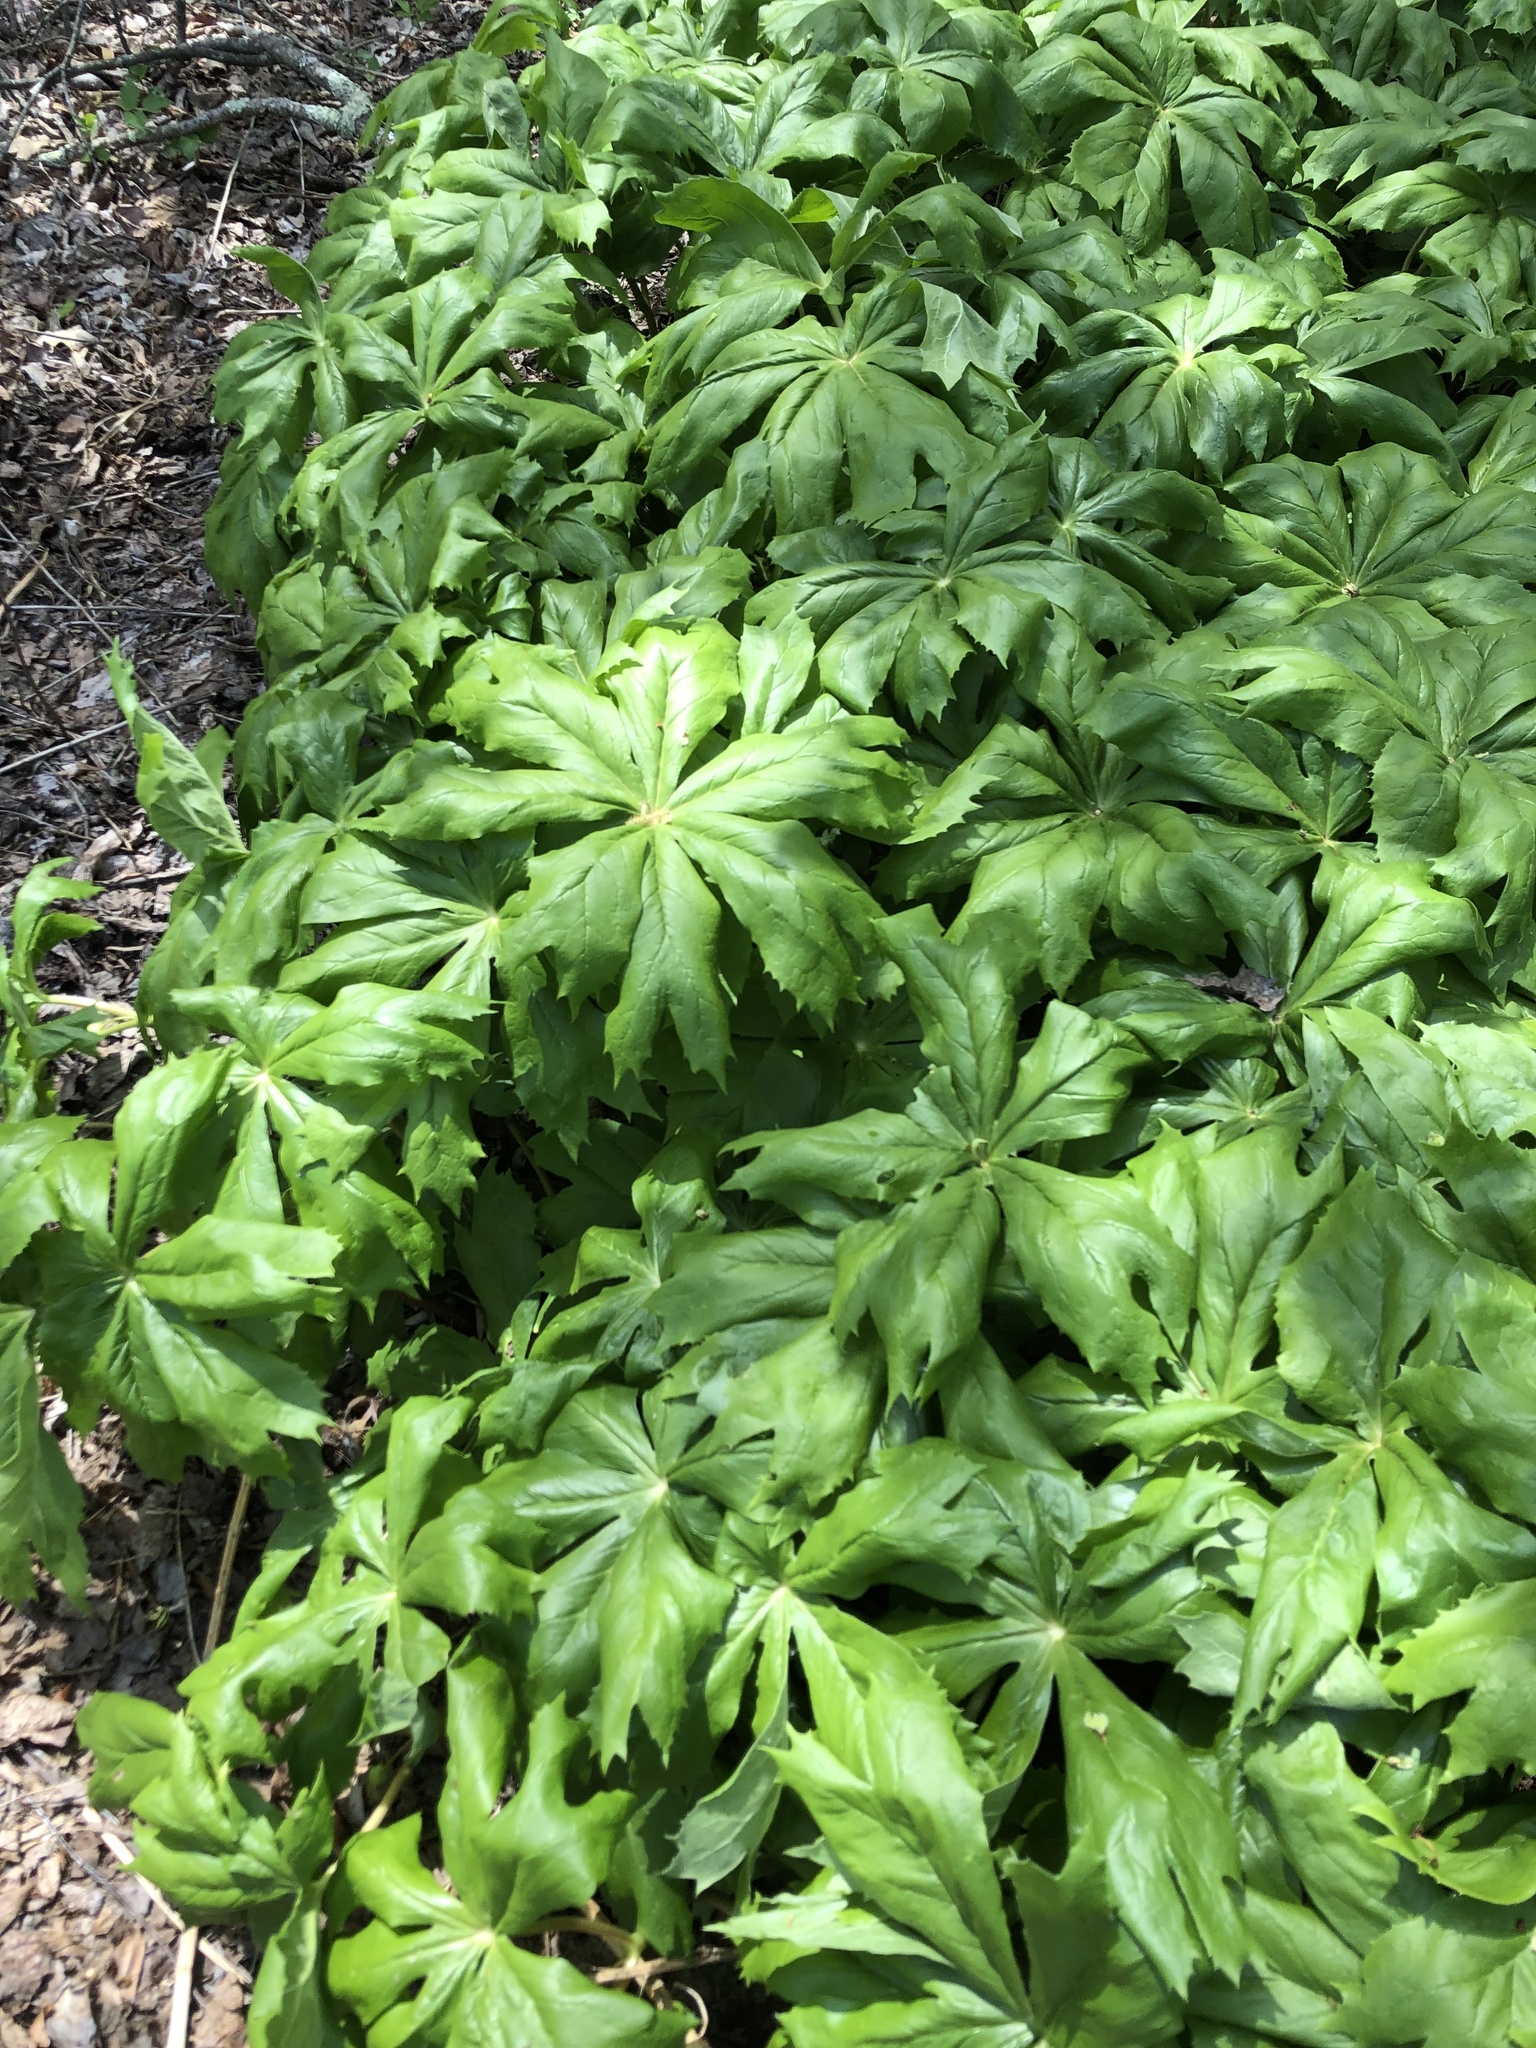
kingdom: Plantae
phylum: Tracheophyta
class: Magnoliopsida
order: Ranunculales
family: Berberidaceae
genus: Podophyllum
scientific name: Podophyllum peltatum
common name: Wild mandrake
